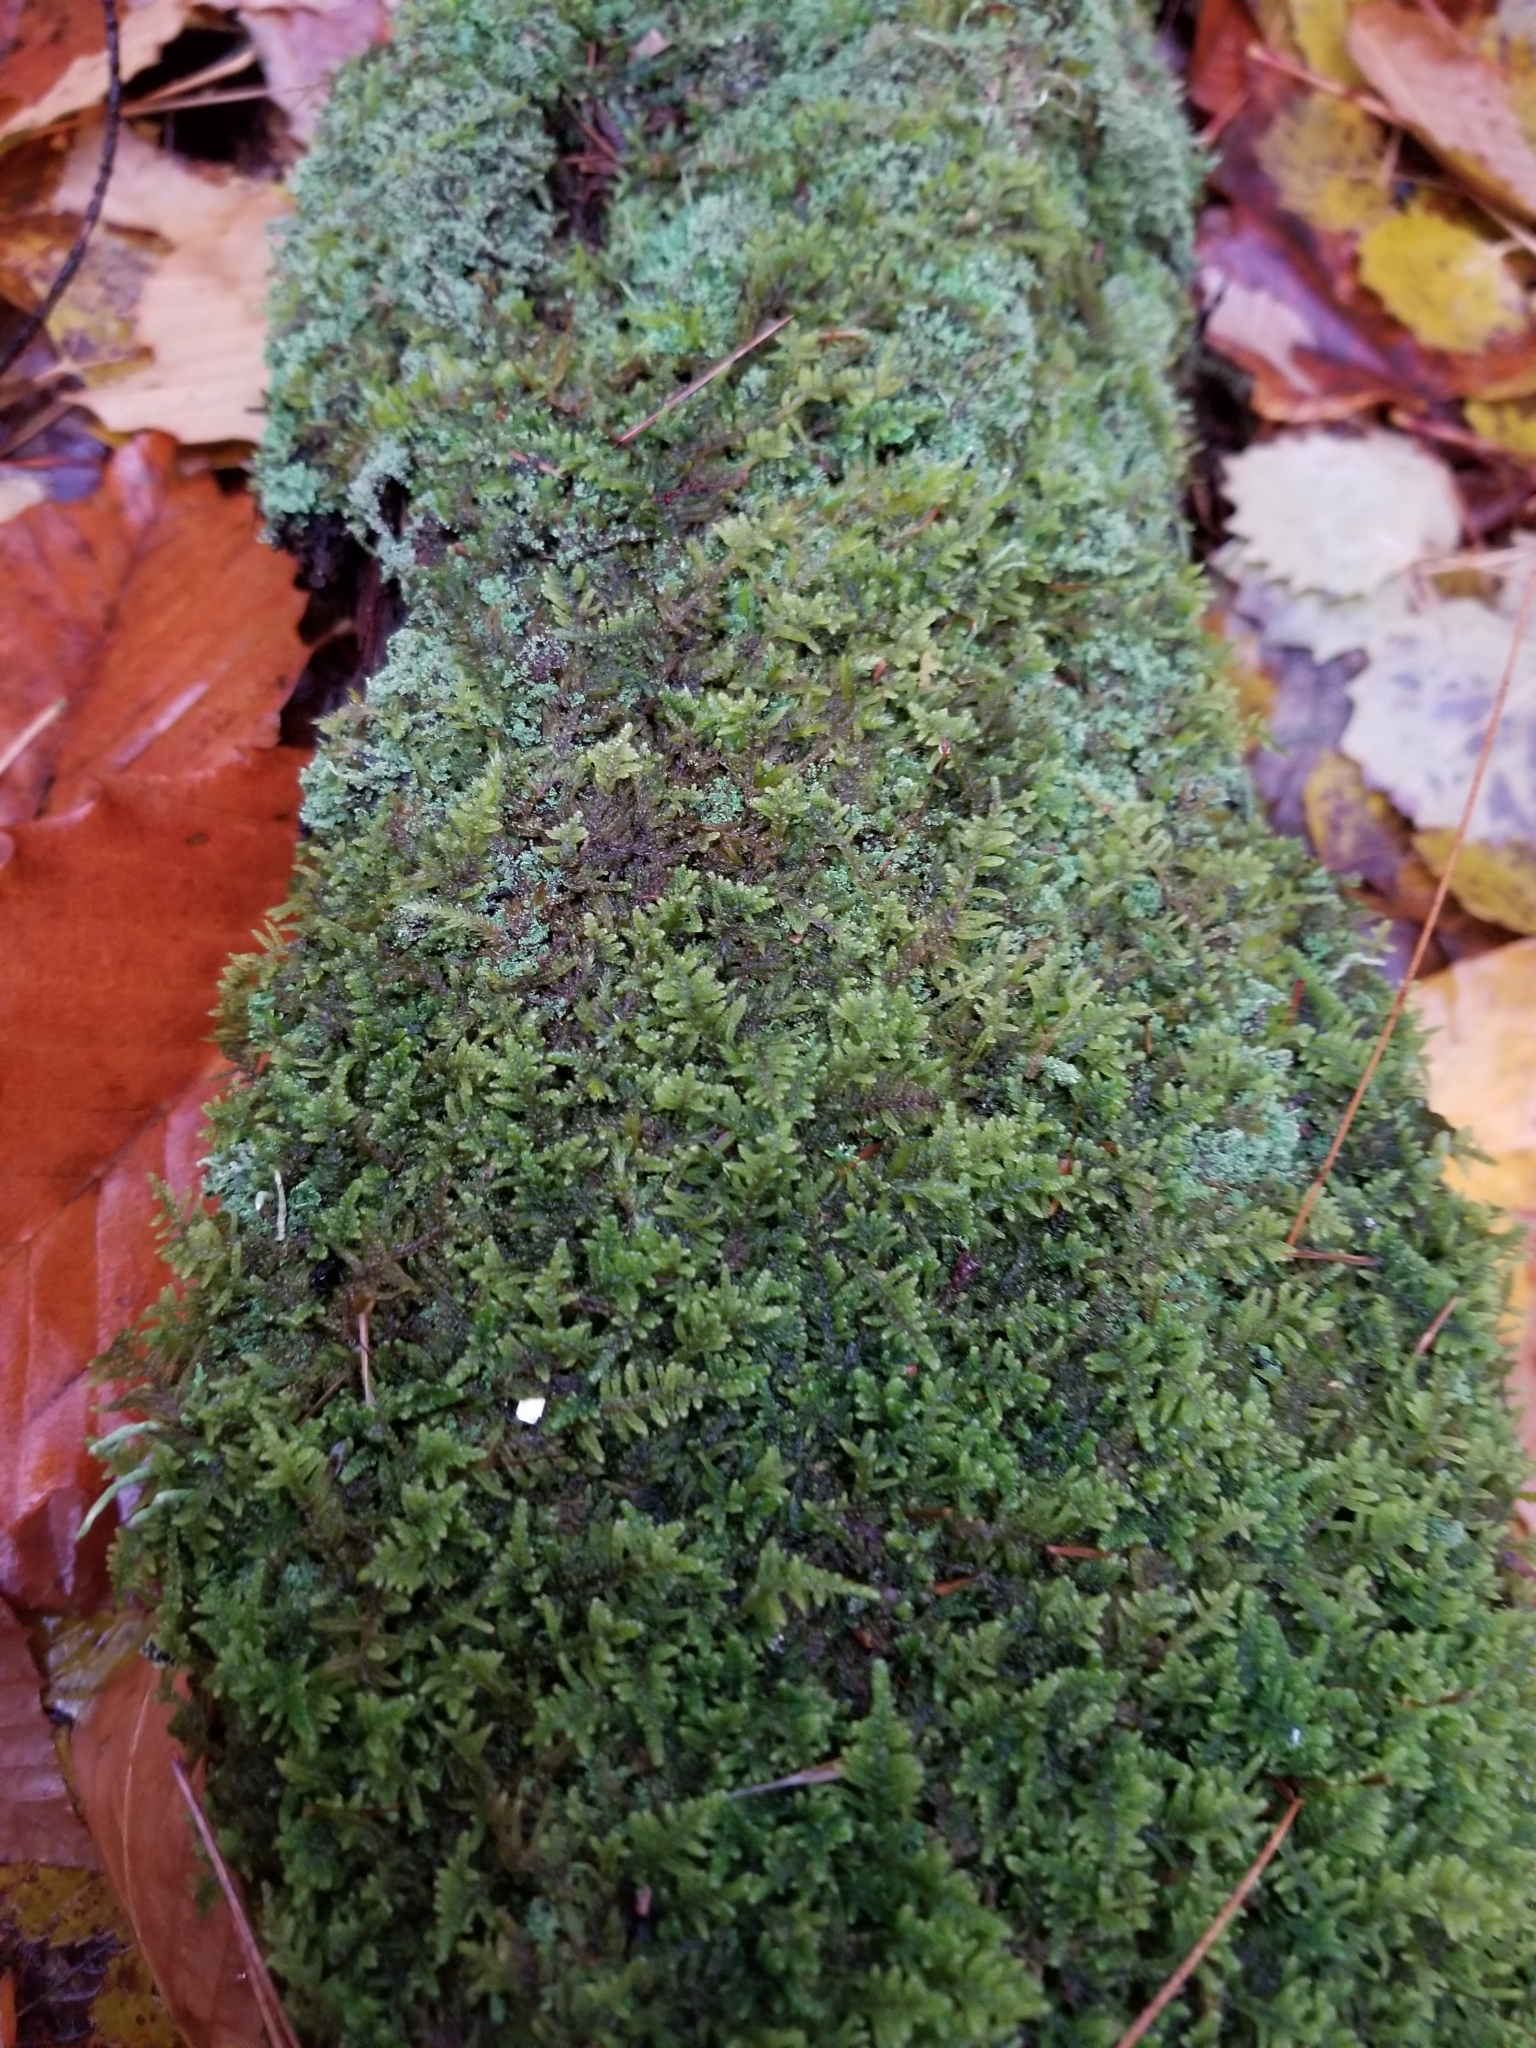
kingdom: Plantae
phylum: Bryophyta
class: Bryopsida
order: Hypnales
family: Callicladiaceae
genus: Callicladium
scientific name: Callicladium imponens
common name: Brocade moss
